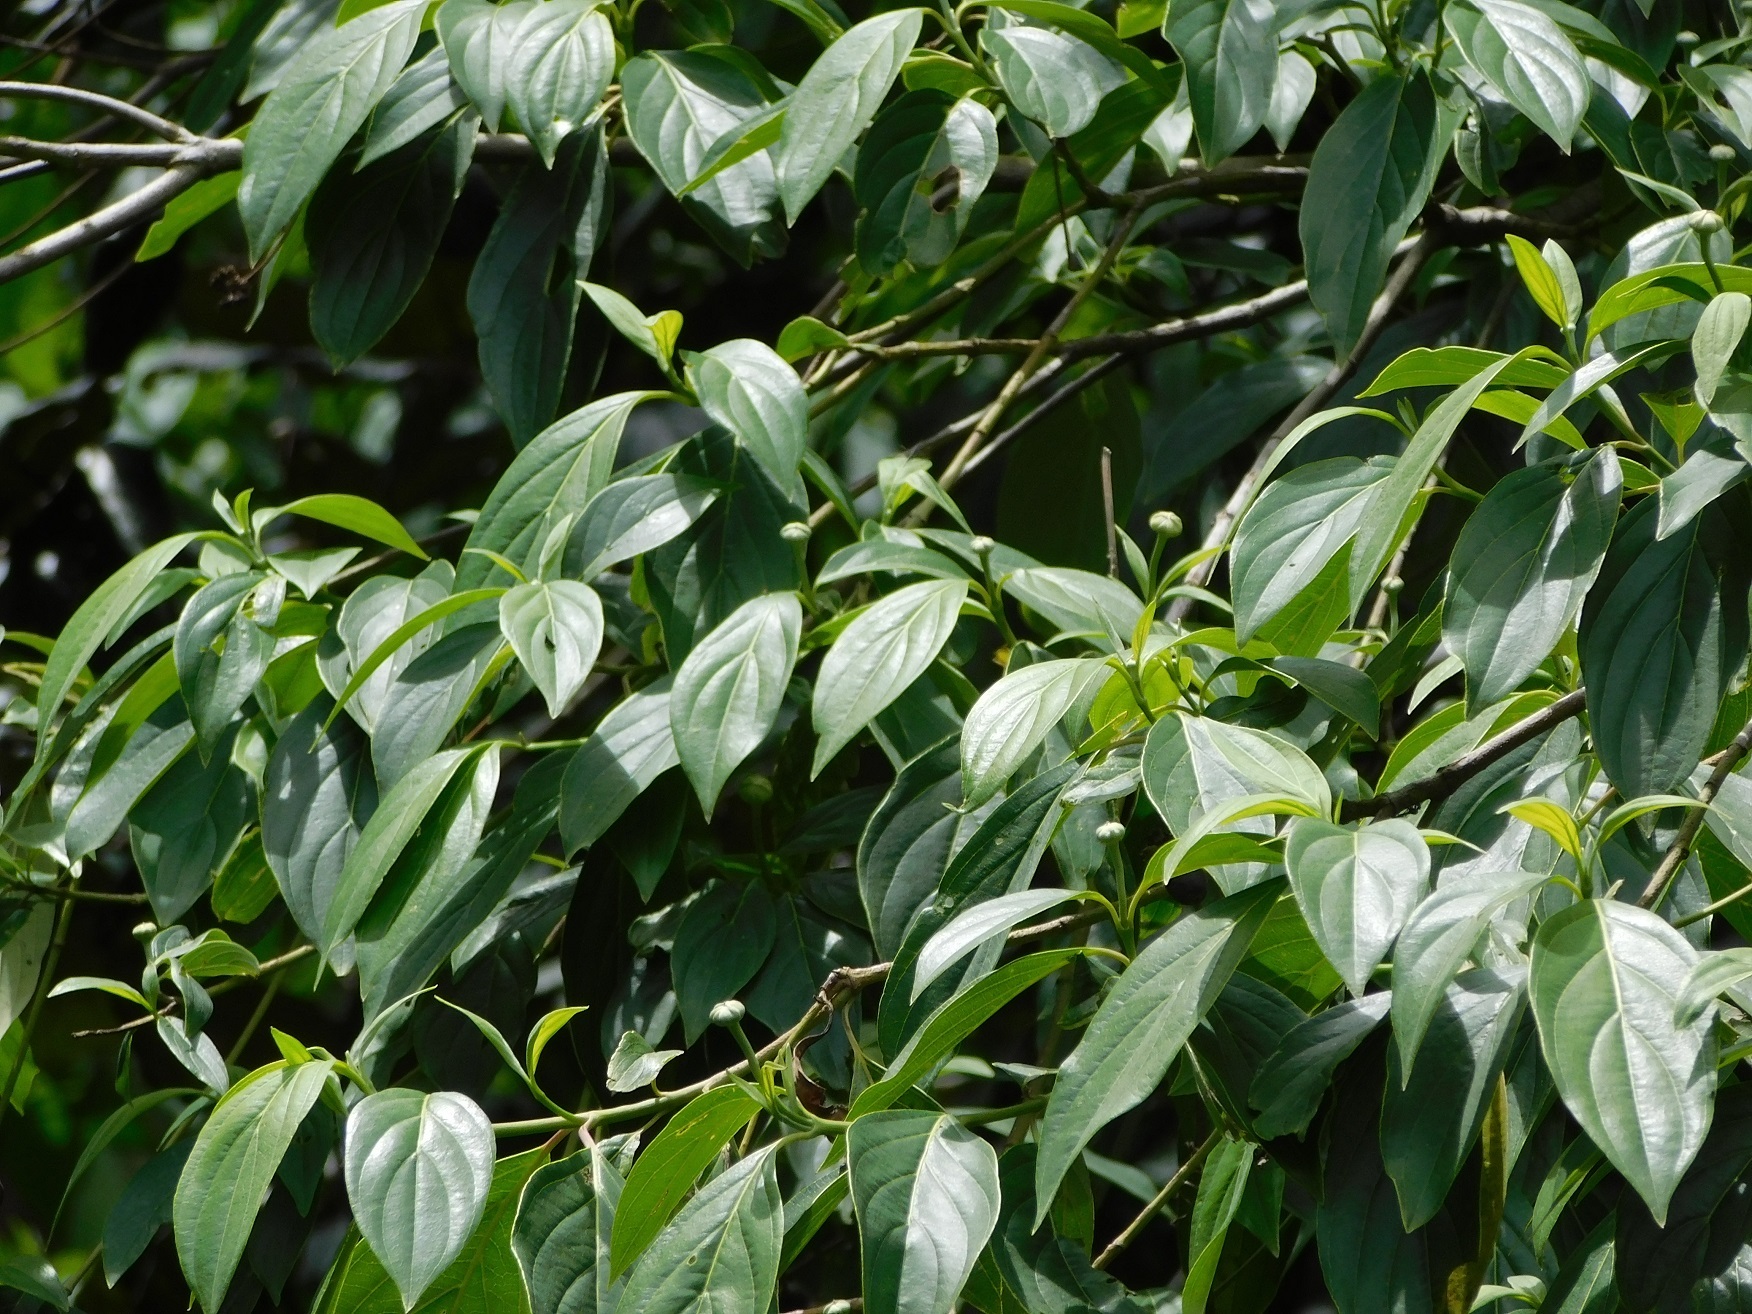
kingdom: Plantae
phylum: Tracheophyta
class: Magnoliopsida
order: Cornales
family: Cornaceae
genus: Cornus
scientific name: Cornus disciflora
